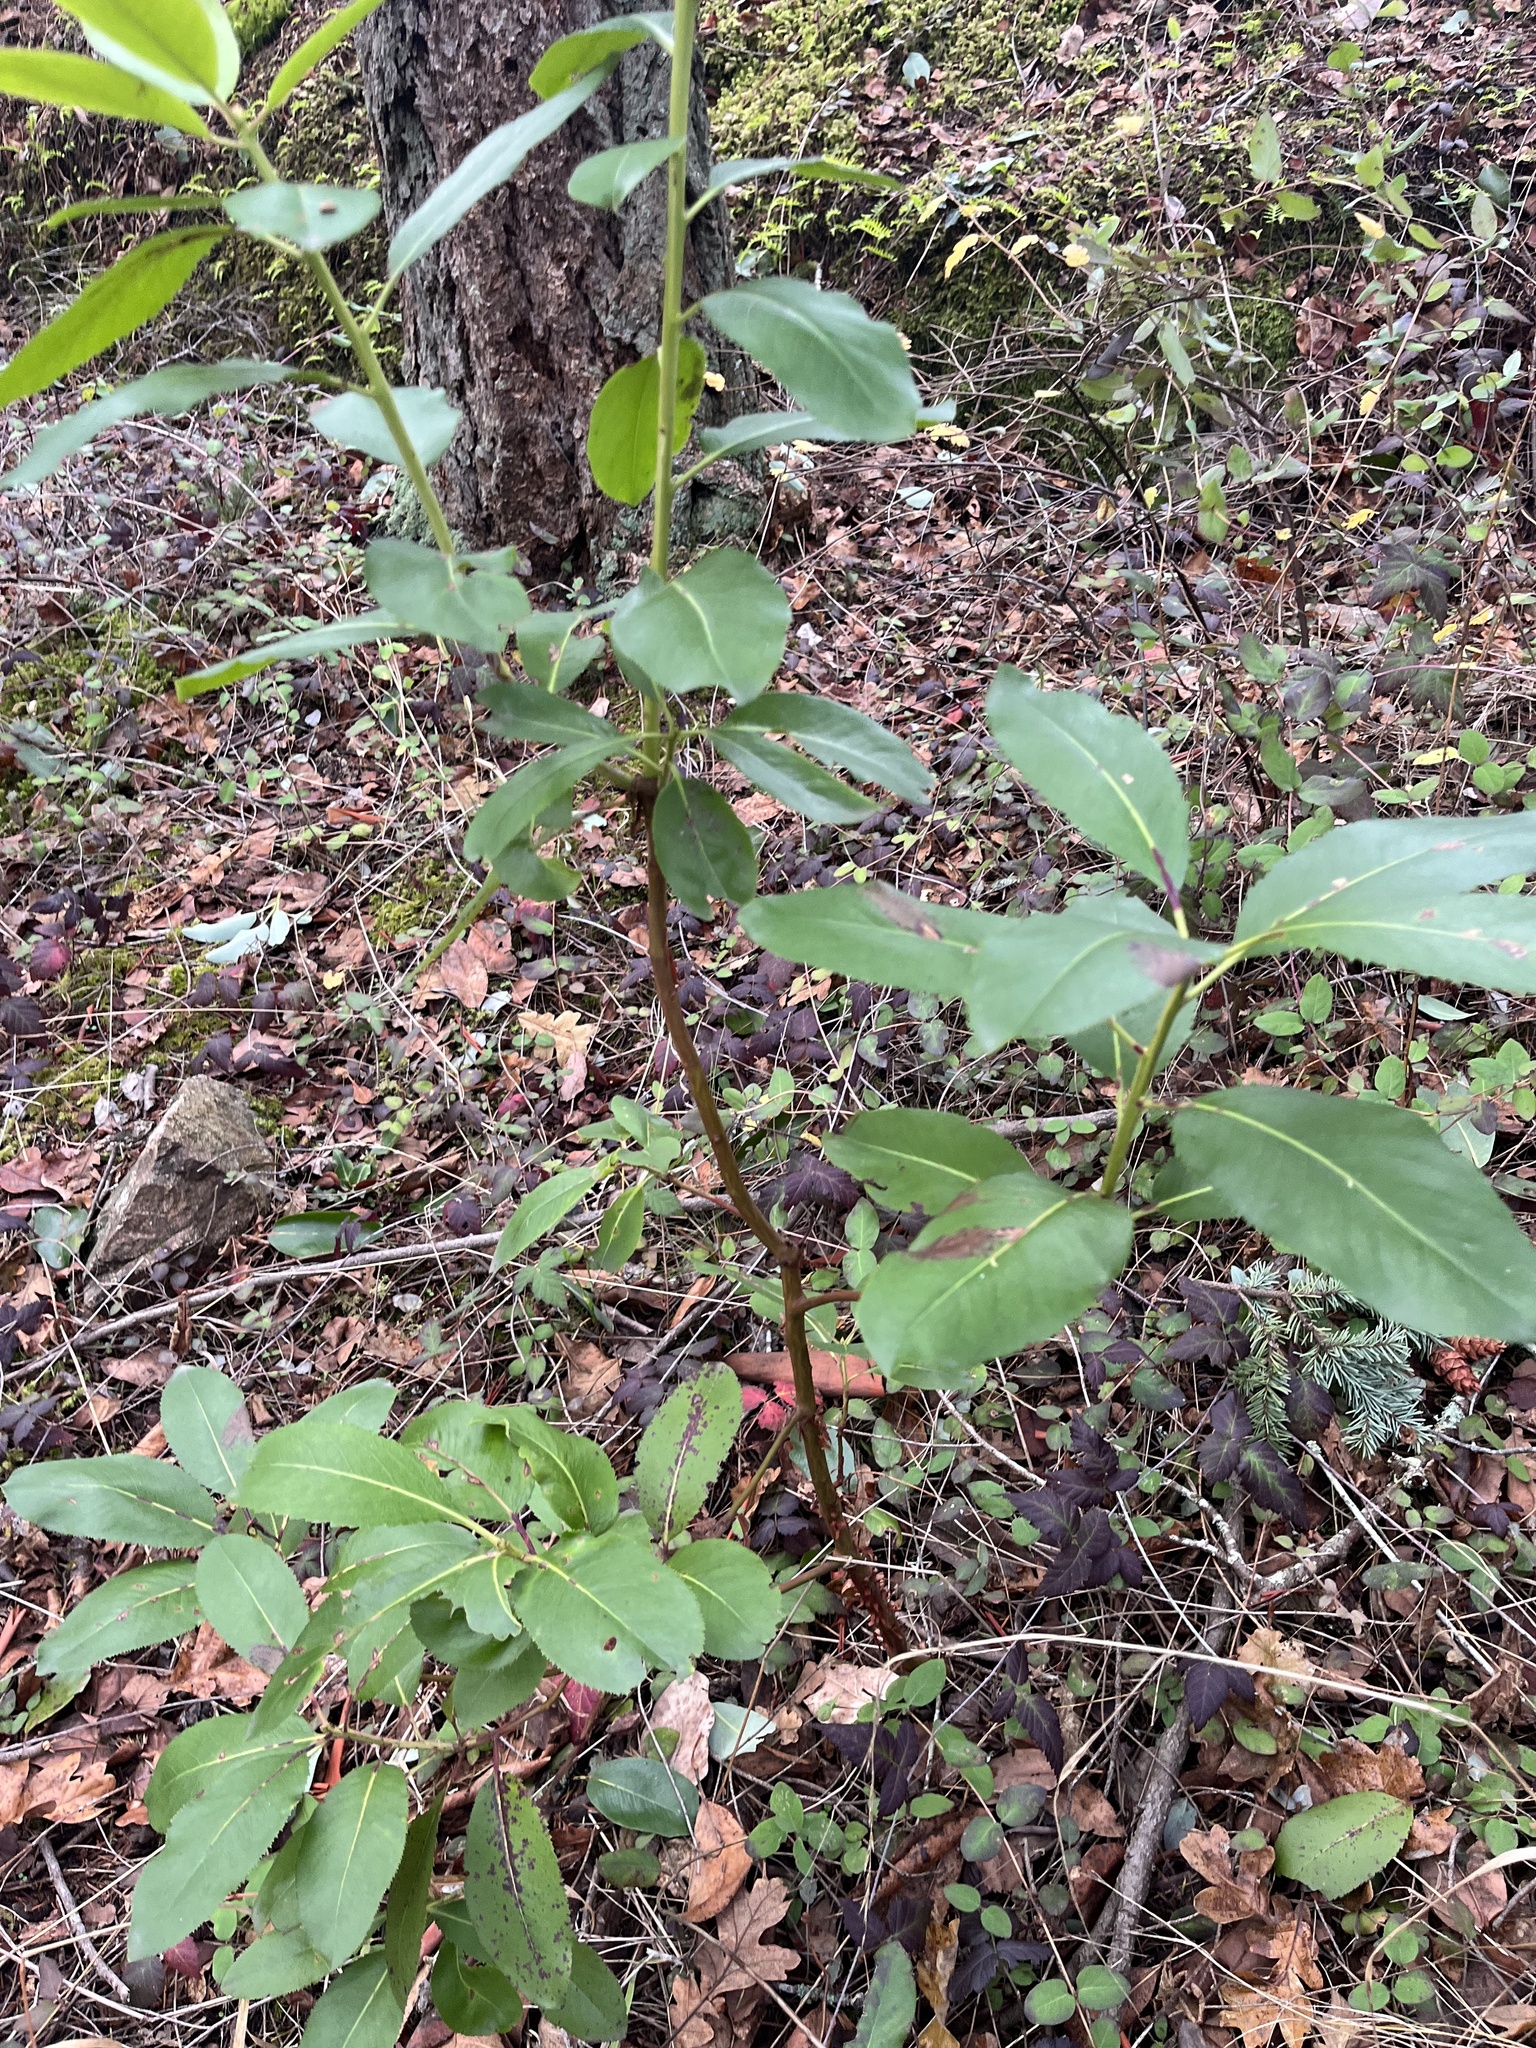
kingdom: Plantae
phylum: Tracheophyta
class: Magnoliopsida
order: Ericales
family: Ericaceae
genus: Arbutus
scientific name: Arbutus menziesii
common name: Pacific madrone
